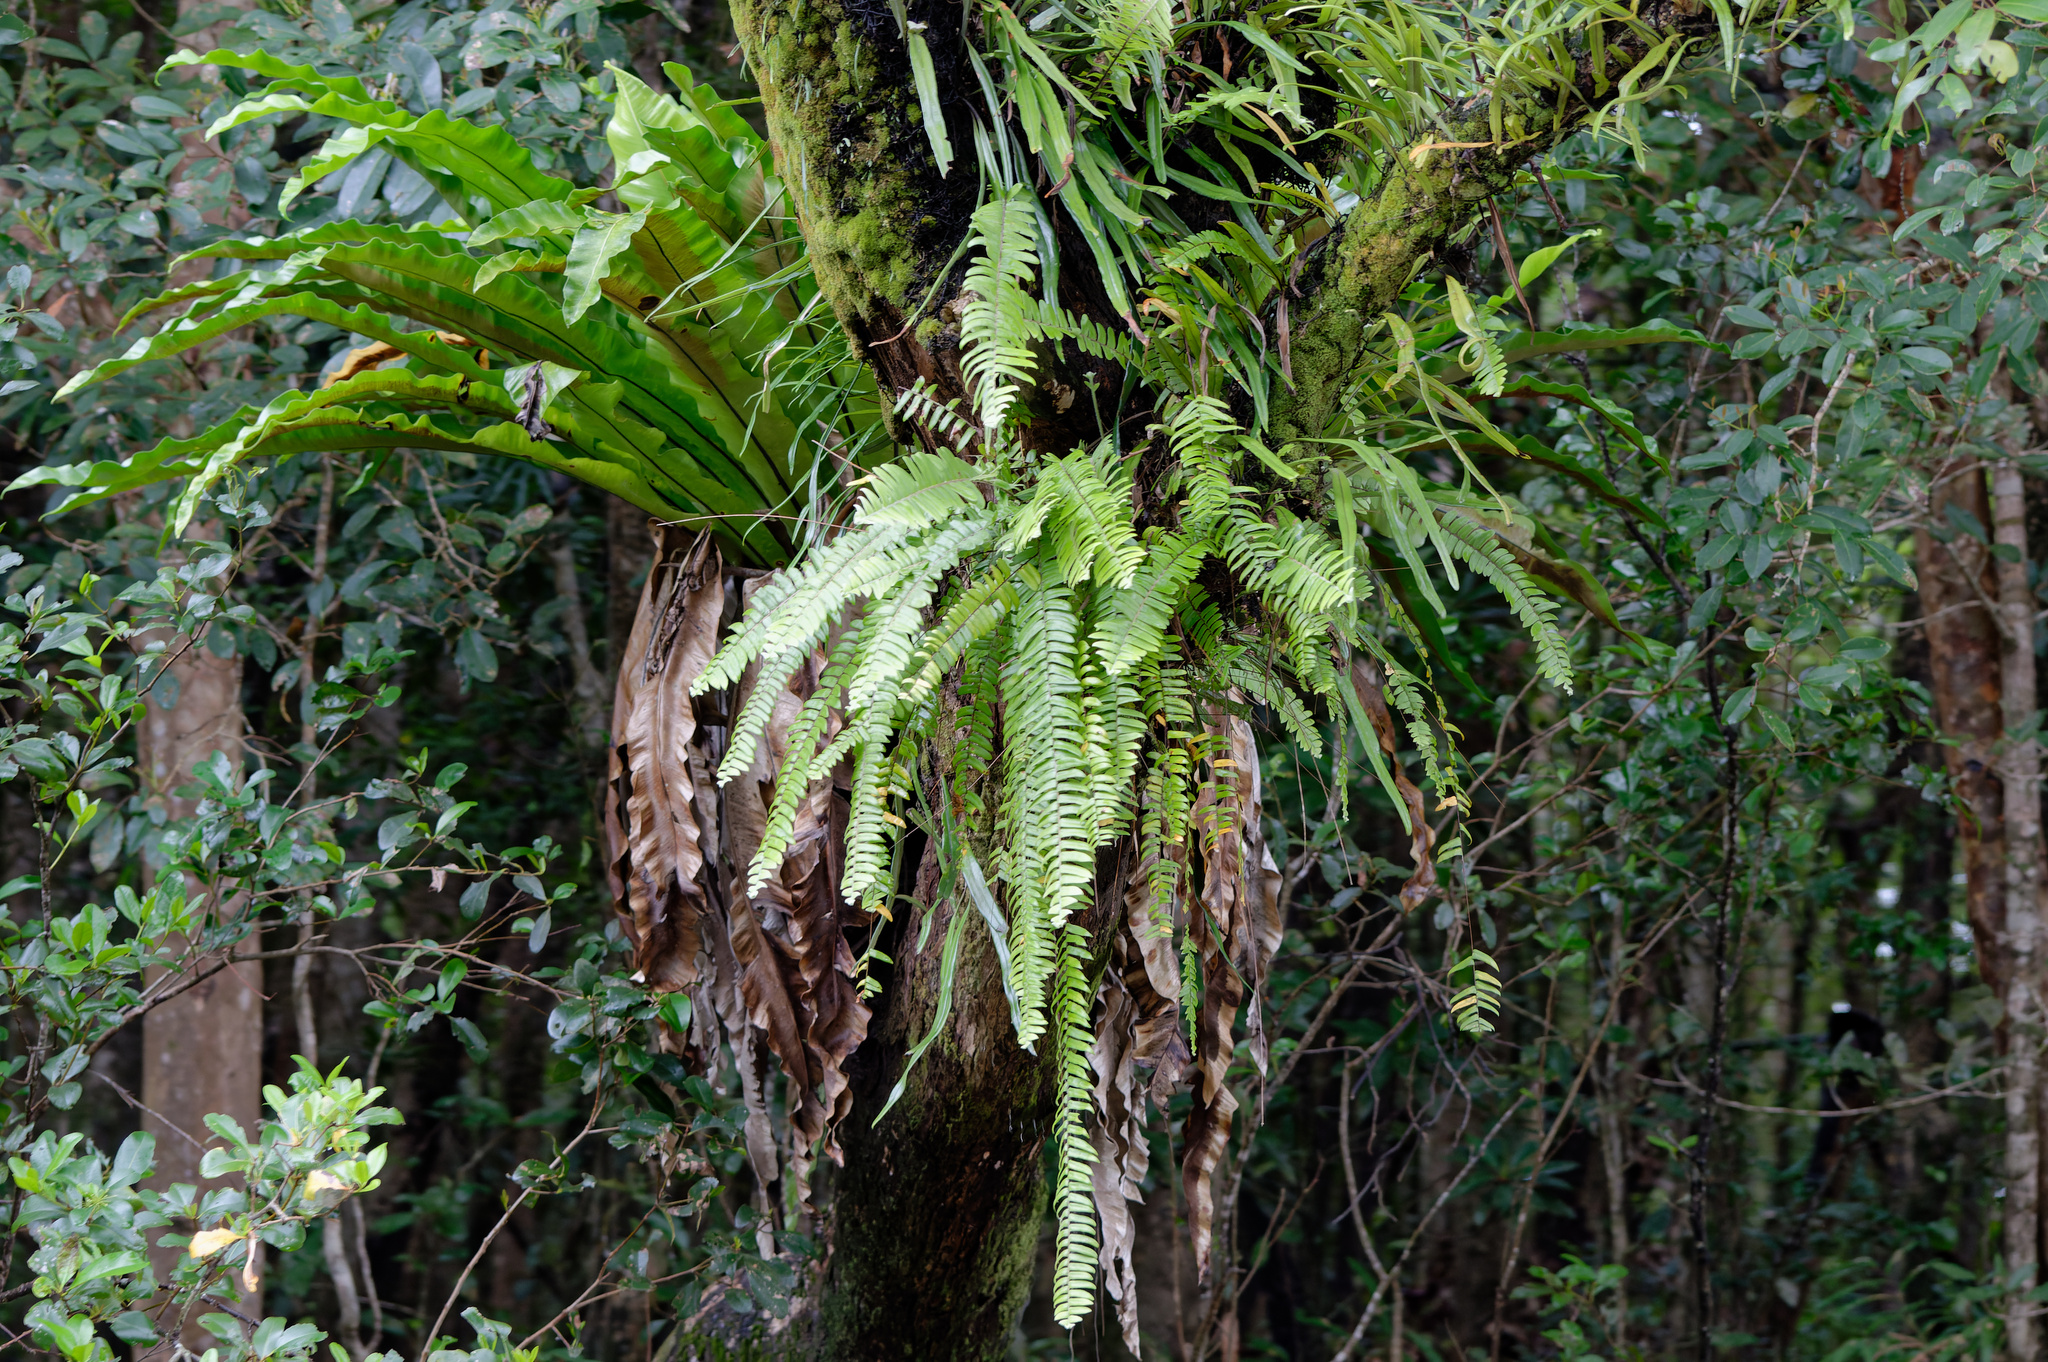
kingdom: Plantae
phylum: Tracheophyta
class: Polypodiopsida
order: Polypodiales
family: Nephrolepidaceae
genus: Nephrolepis
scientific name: Nephrolepis acutifolia
